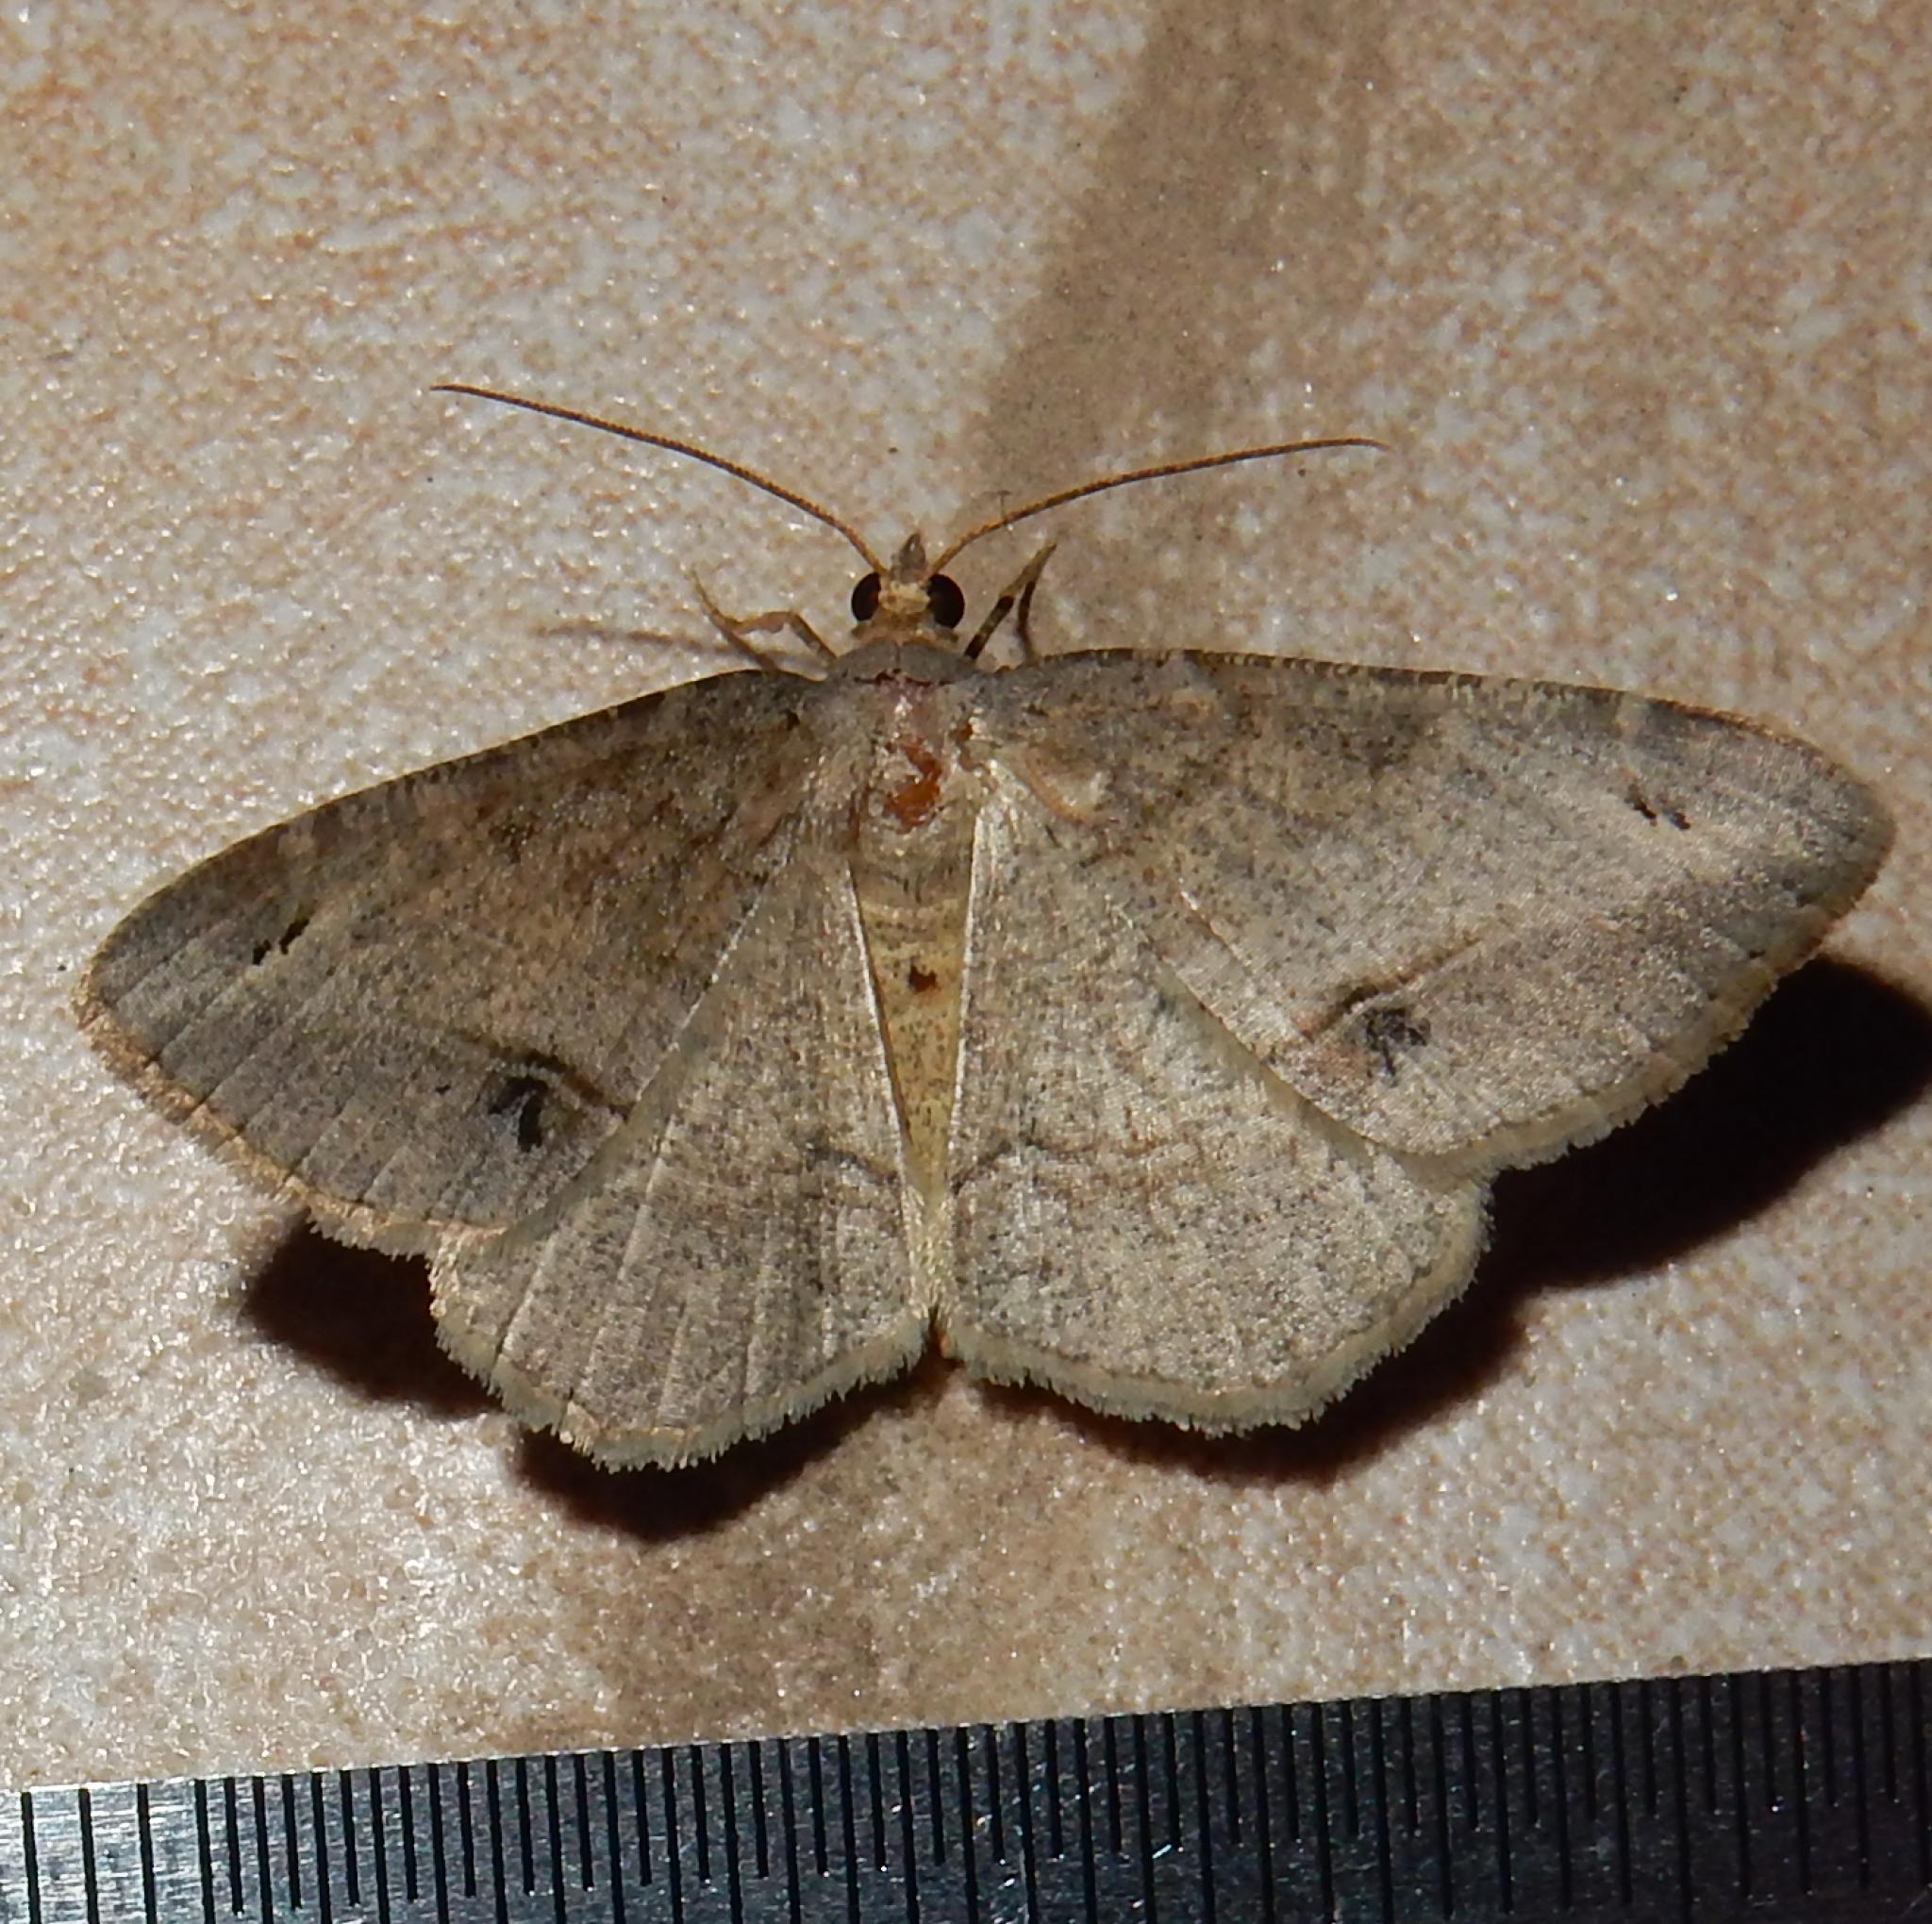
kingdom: Animalia
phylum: Arthropoda
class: Insecta
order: Lepidoptera
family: Geometridae
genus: Chiasmia
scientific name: Chiasmia brongusaria
